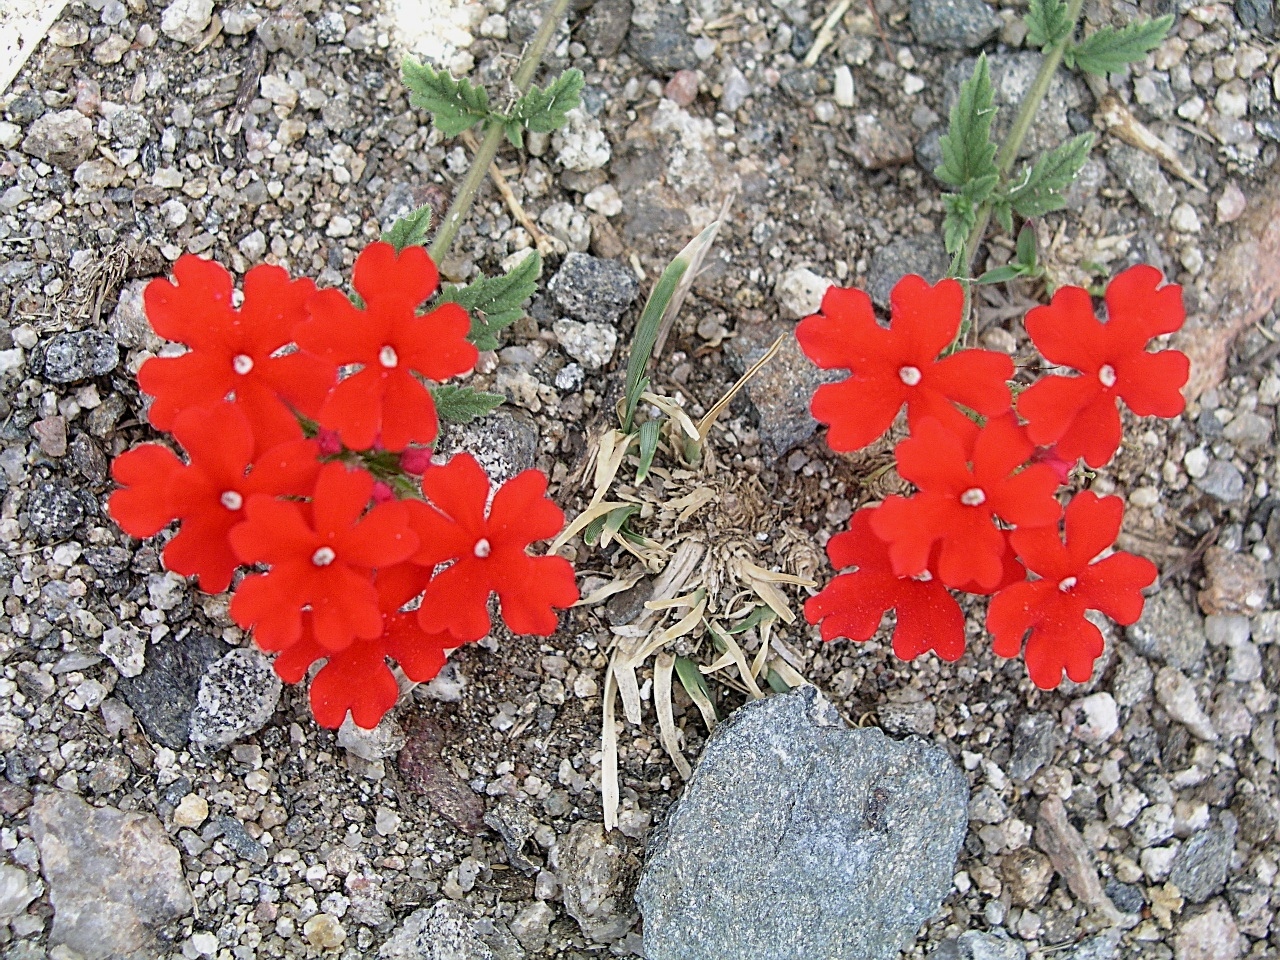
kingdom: Plantae
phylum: Tracheophyta
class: Magnoliopsida
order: Lamiales
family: Verbenaceae
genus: Verbena
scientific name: Verbena peruviana
